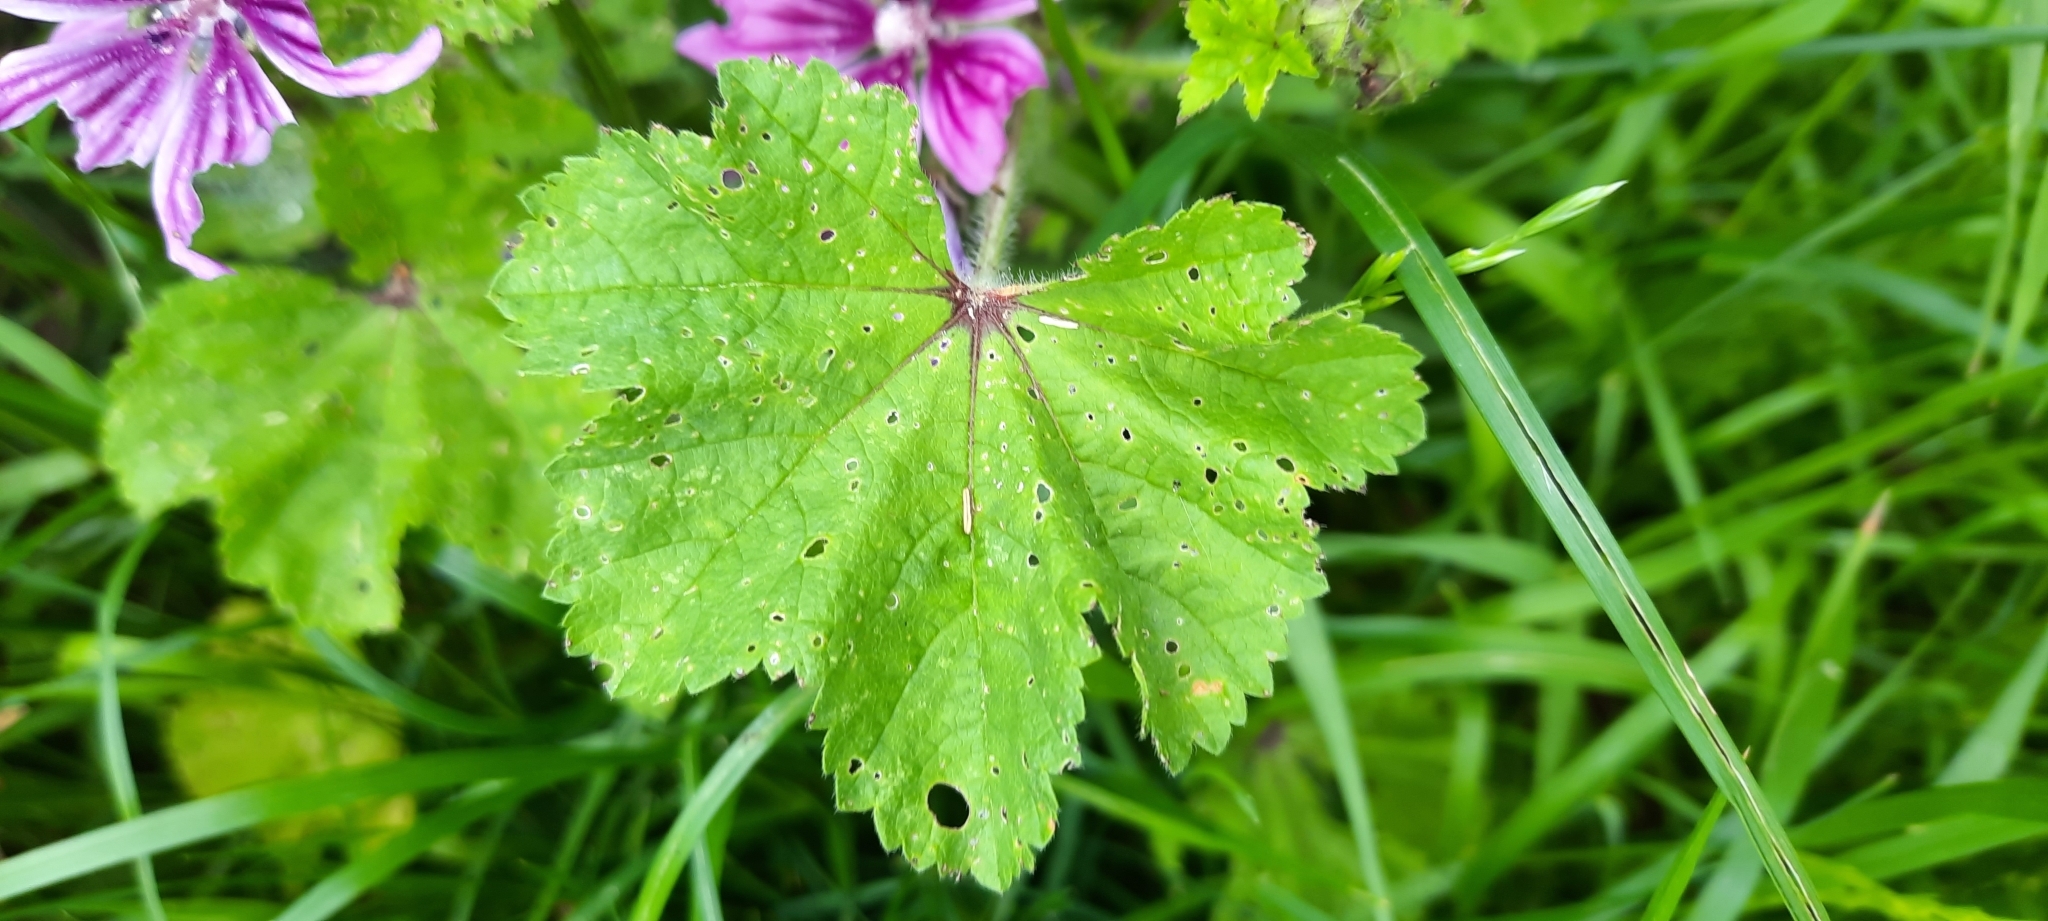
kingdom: Plantae
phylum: Tracheophyta
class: Magnoliopsida
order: Malvales
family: Malvaceae
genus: Malva
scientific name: Malva sylvestris
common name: Common mallow
